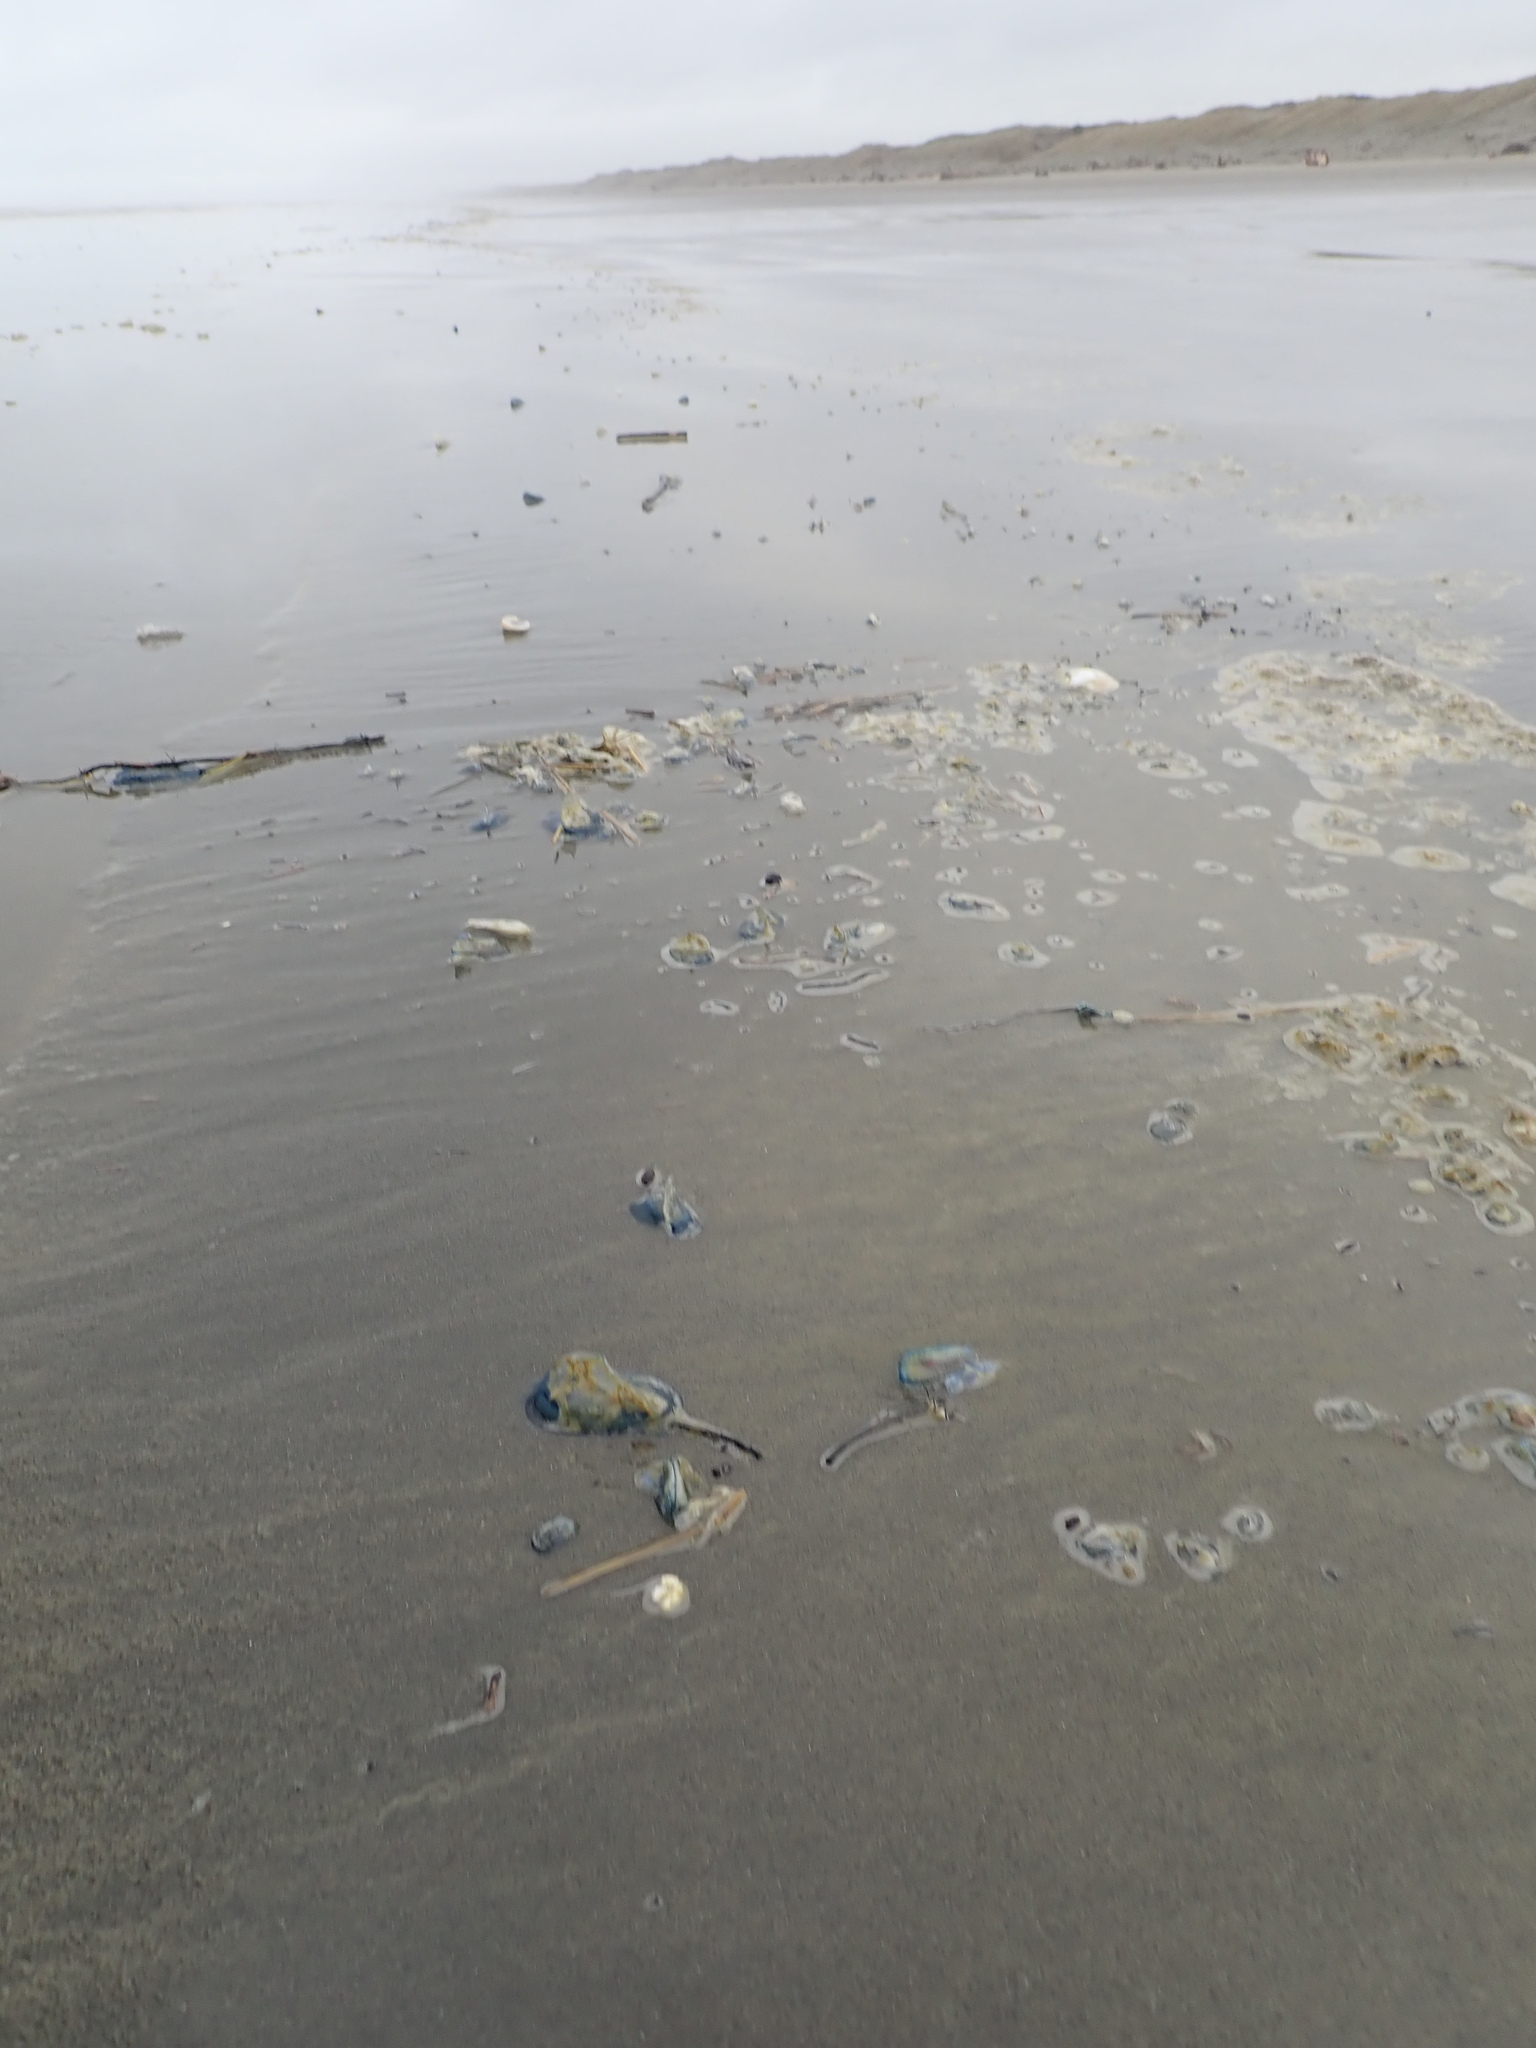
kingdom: Animalia
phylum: Cnidaria
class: Hydrozoa
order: Anthoathecata
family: Porpitidae
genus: Velella
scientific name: Velella velella
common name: By-the-wind-sailor
